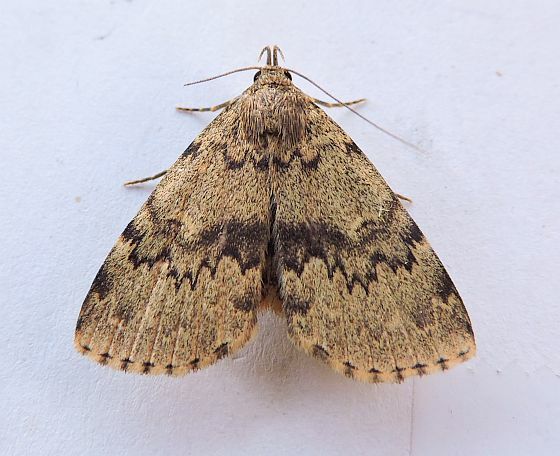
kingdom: Animalia
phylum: Arthropoda
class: Insecta
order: Lepidoptera
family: Erebidae
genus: Idia
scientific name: Idia denticulalis
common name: Toothed idia moth
